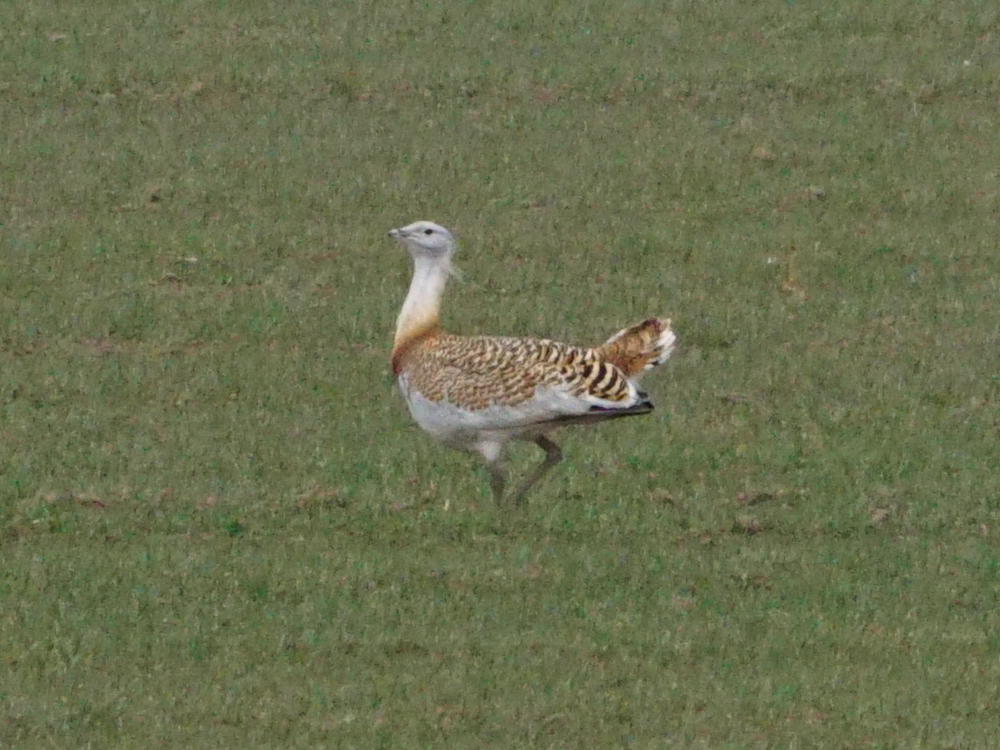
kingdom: Animalia
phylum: Chordata
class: Aves
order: Otidiformes
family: Otididae
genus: Otis
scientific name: Otis tarda
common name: Great bustard
